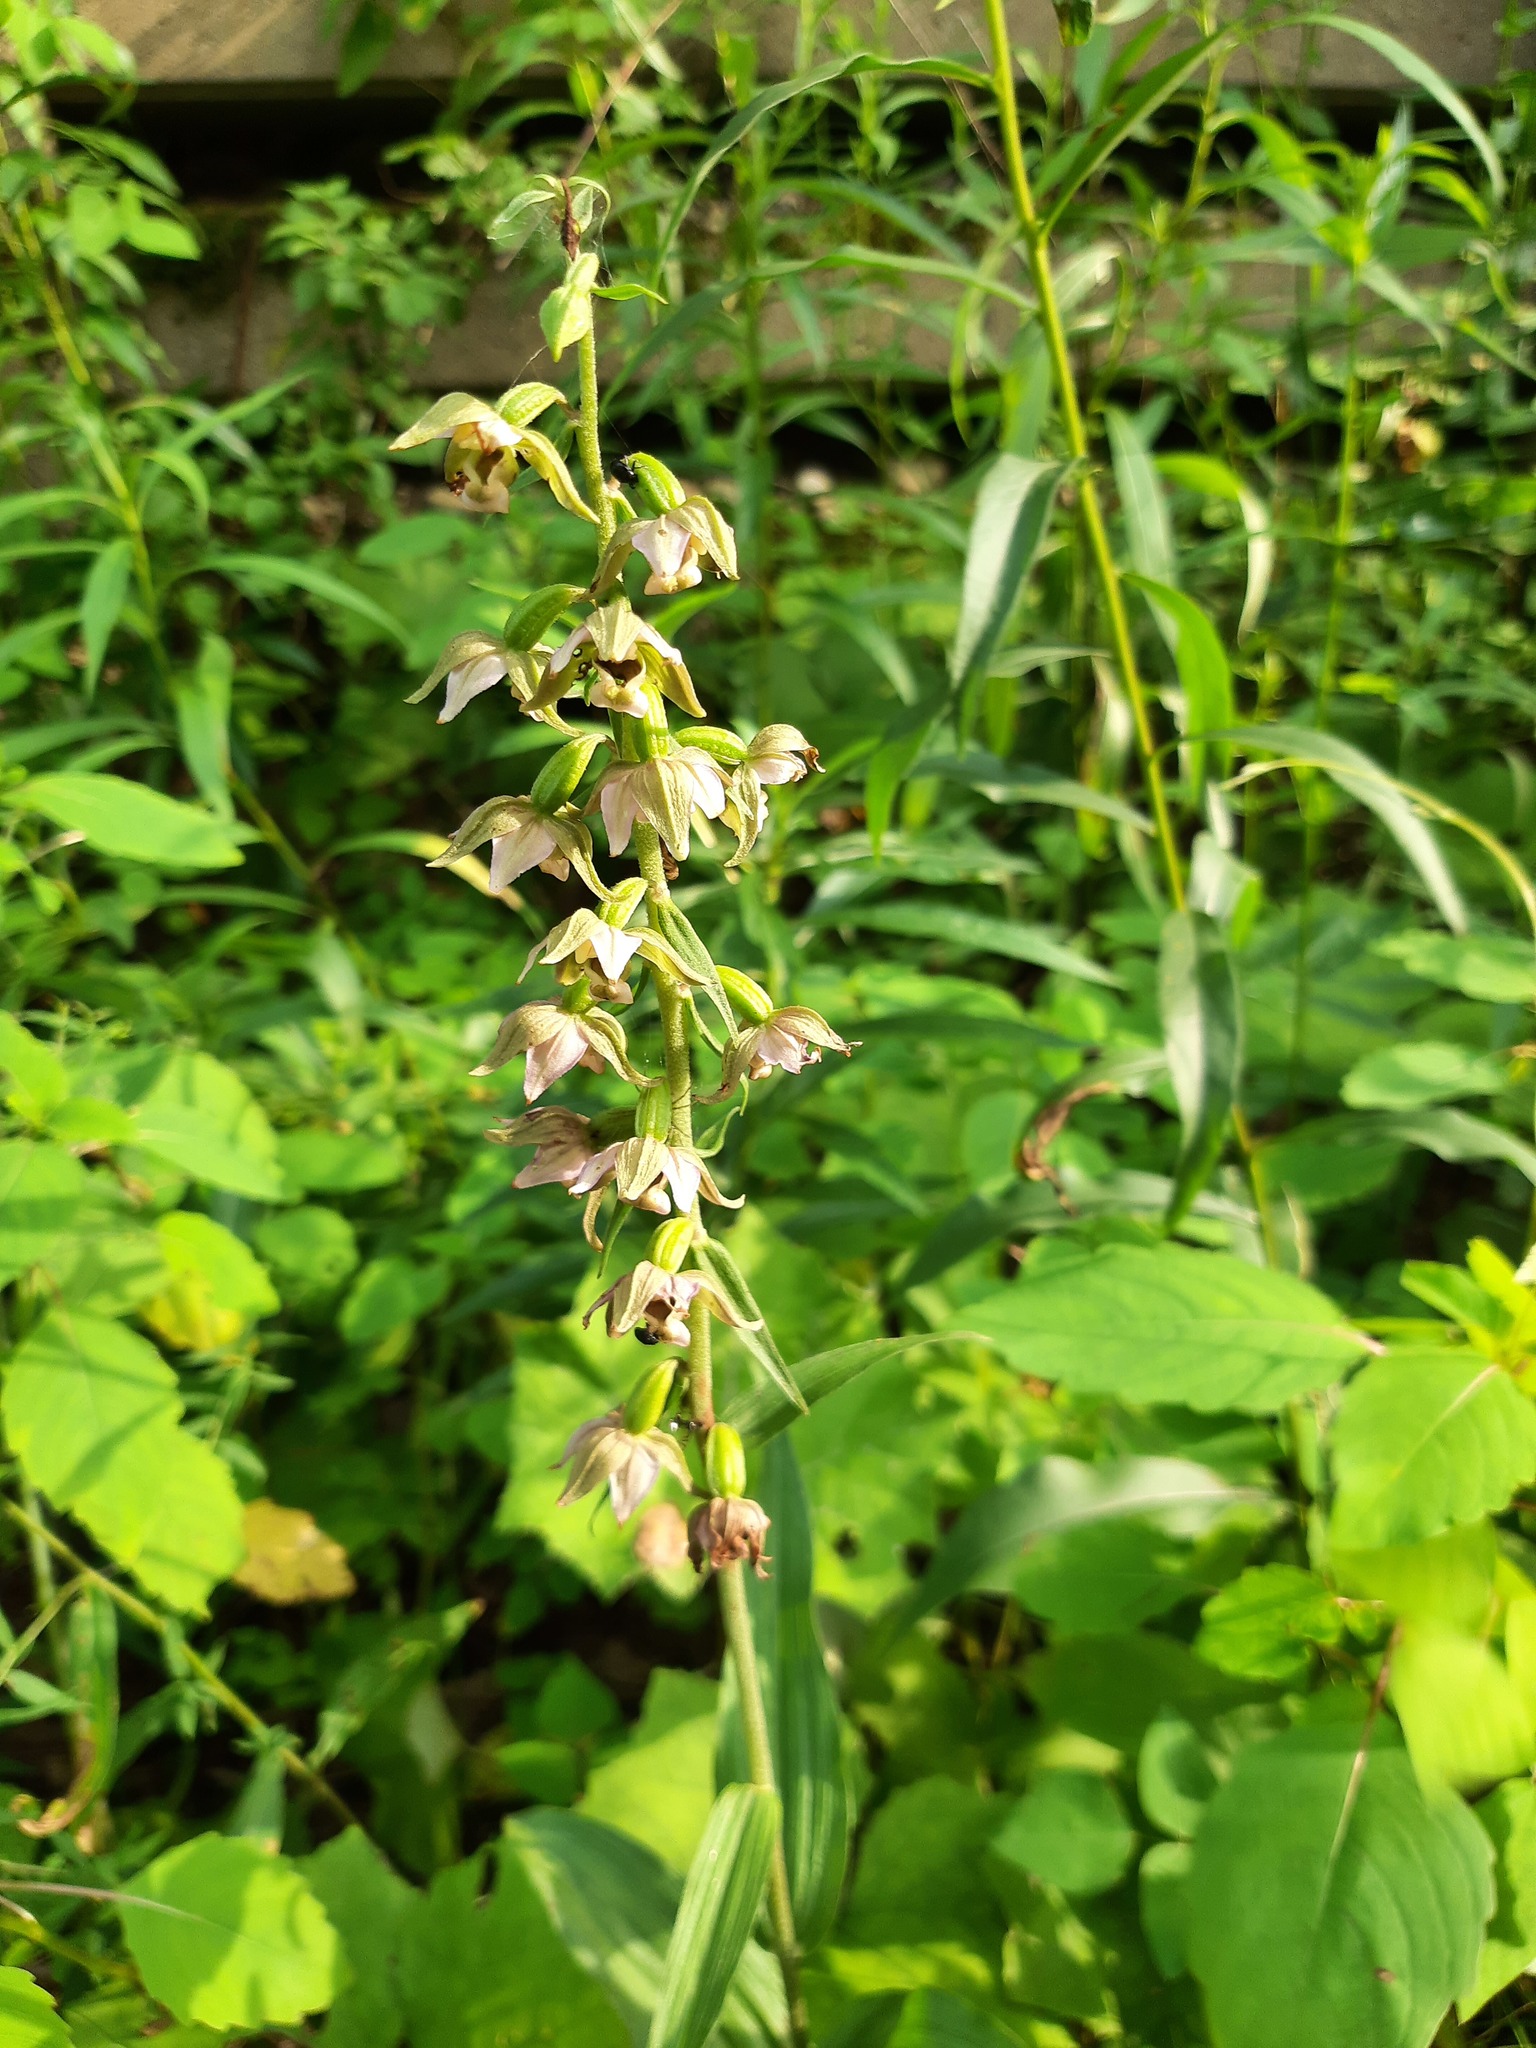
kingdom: Plantae
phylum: Tracheophyta
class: Liliopsida
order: Asparagales
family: Orchidaceae
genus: Epipactis
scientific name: Epipactis helleborine
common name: Broad-leaved helleborine
